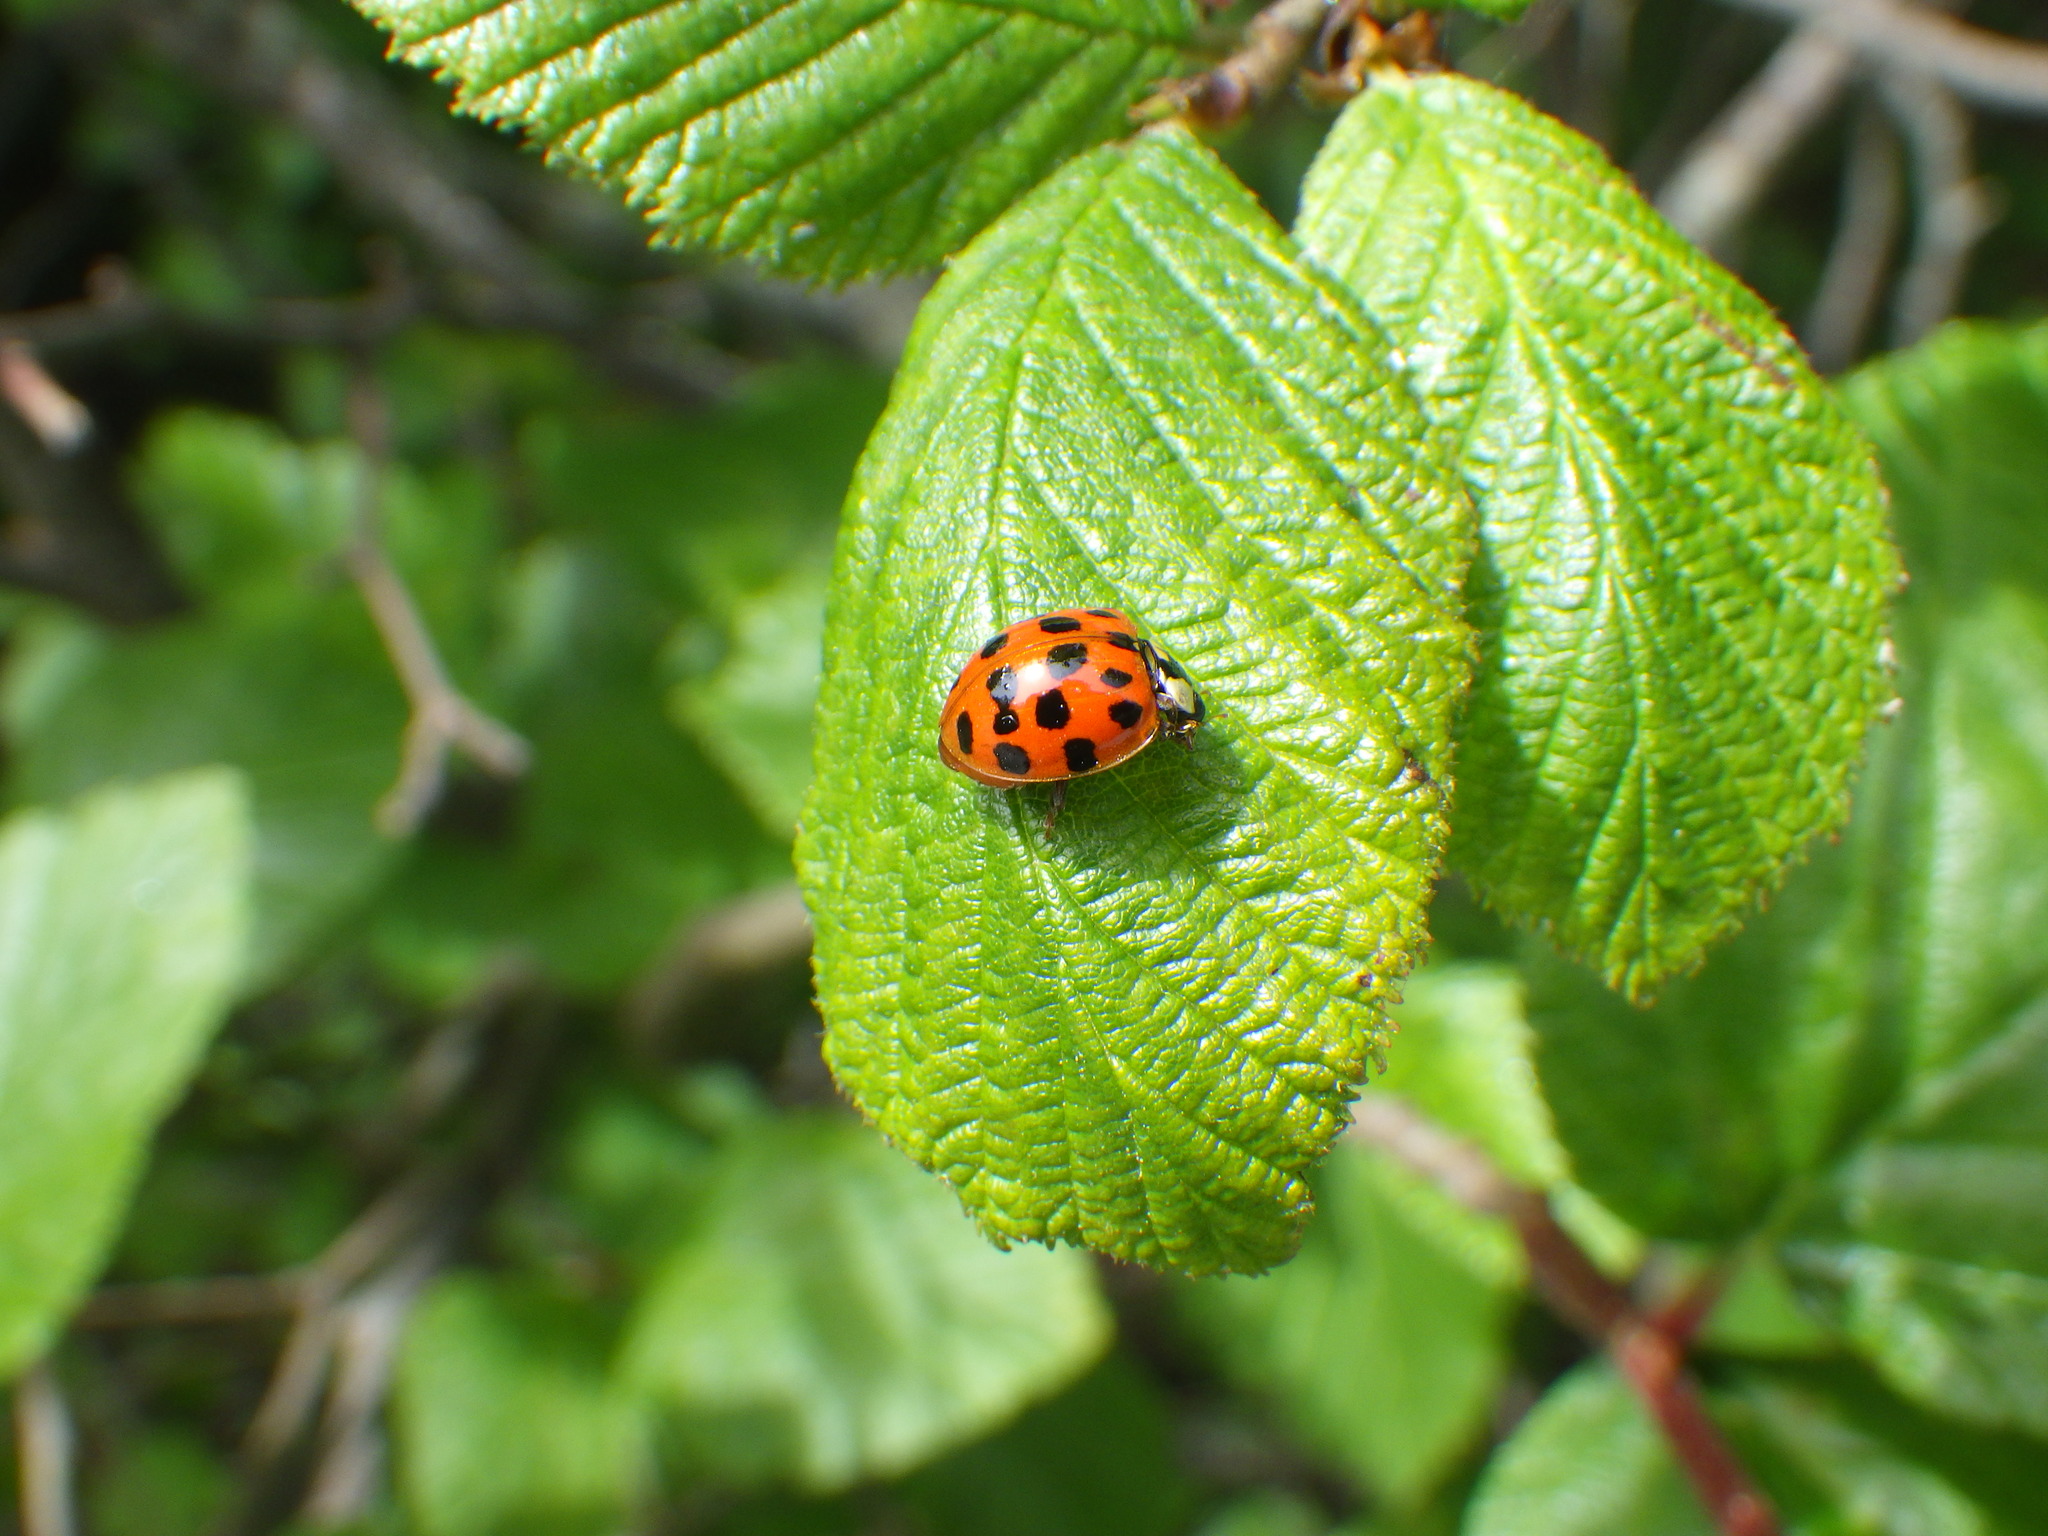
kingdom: Animalia
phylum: Arthropoda
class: Insecta
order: Coleoptera
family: Coccinellidae
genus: Harmonia
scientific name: Harmonia axyridis
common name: Harlequin ladybird
